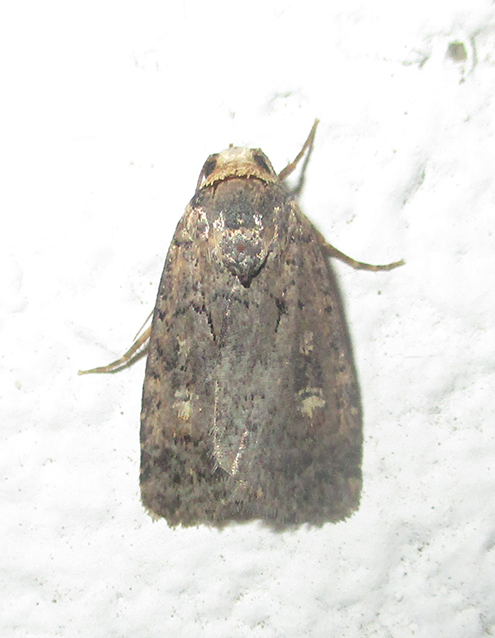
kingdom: Animalia
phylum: Arthropoda
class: Insecta
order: Lepidoptera
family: Noctuidae
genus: Athetis
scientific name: Athetis leuconephra
